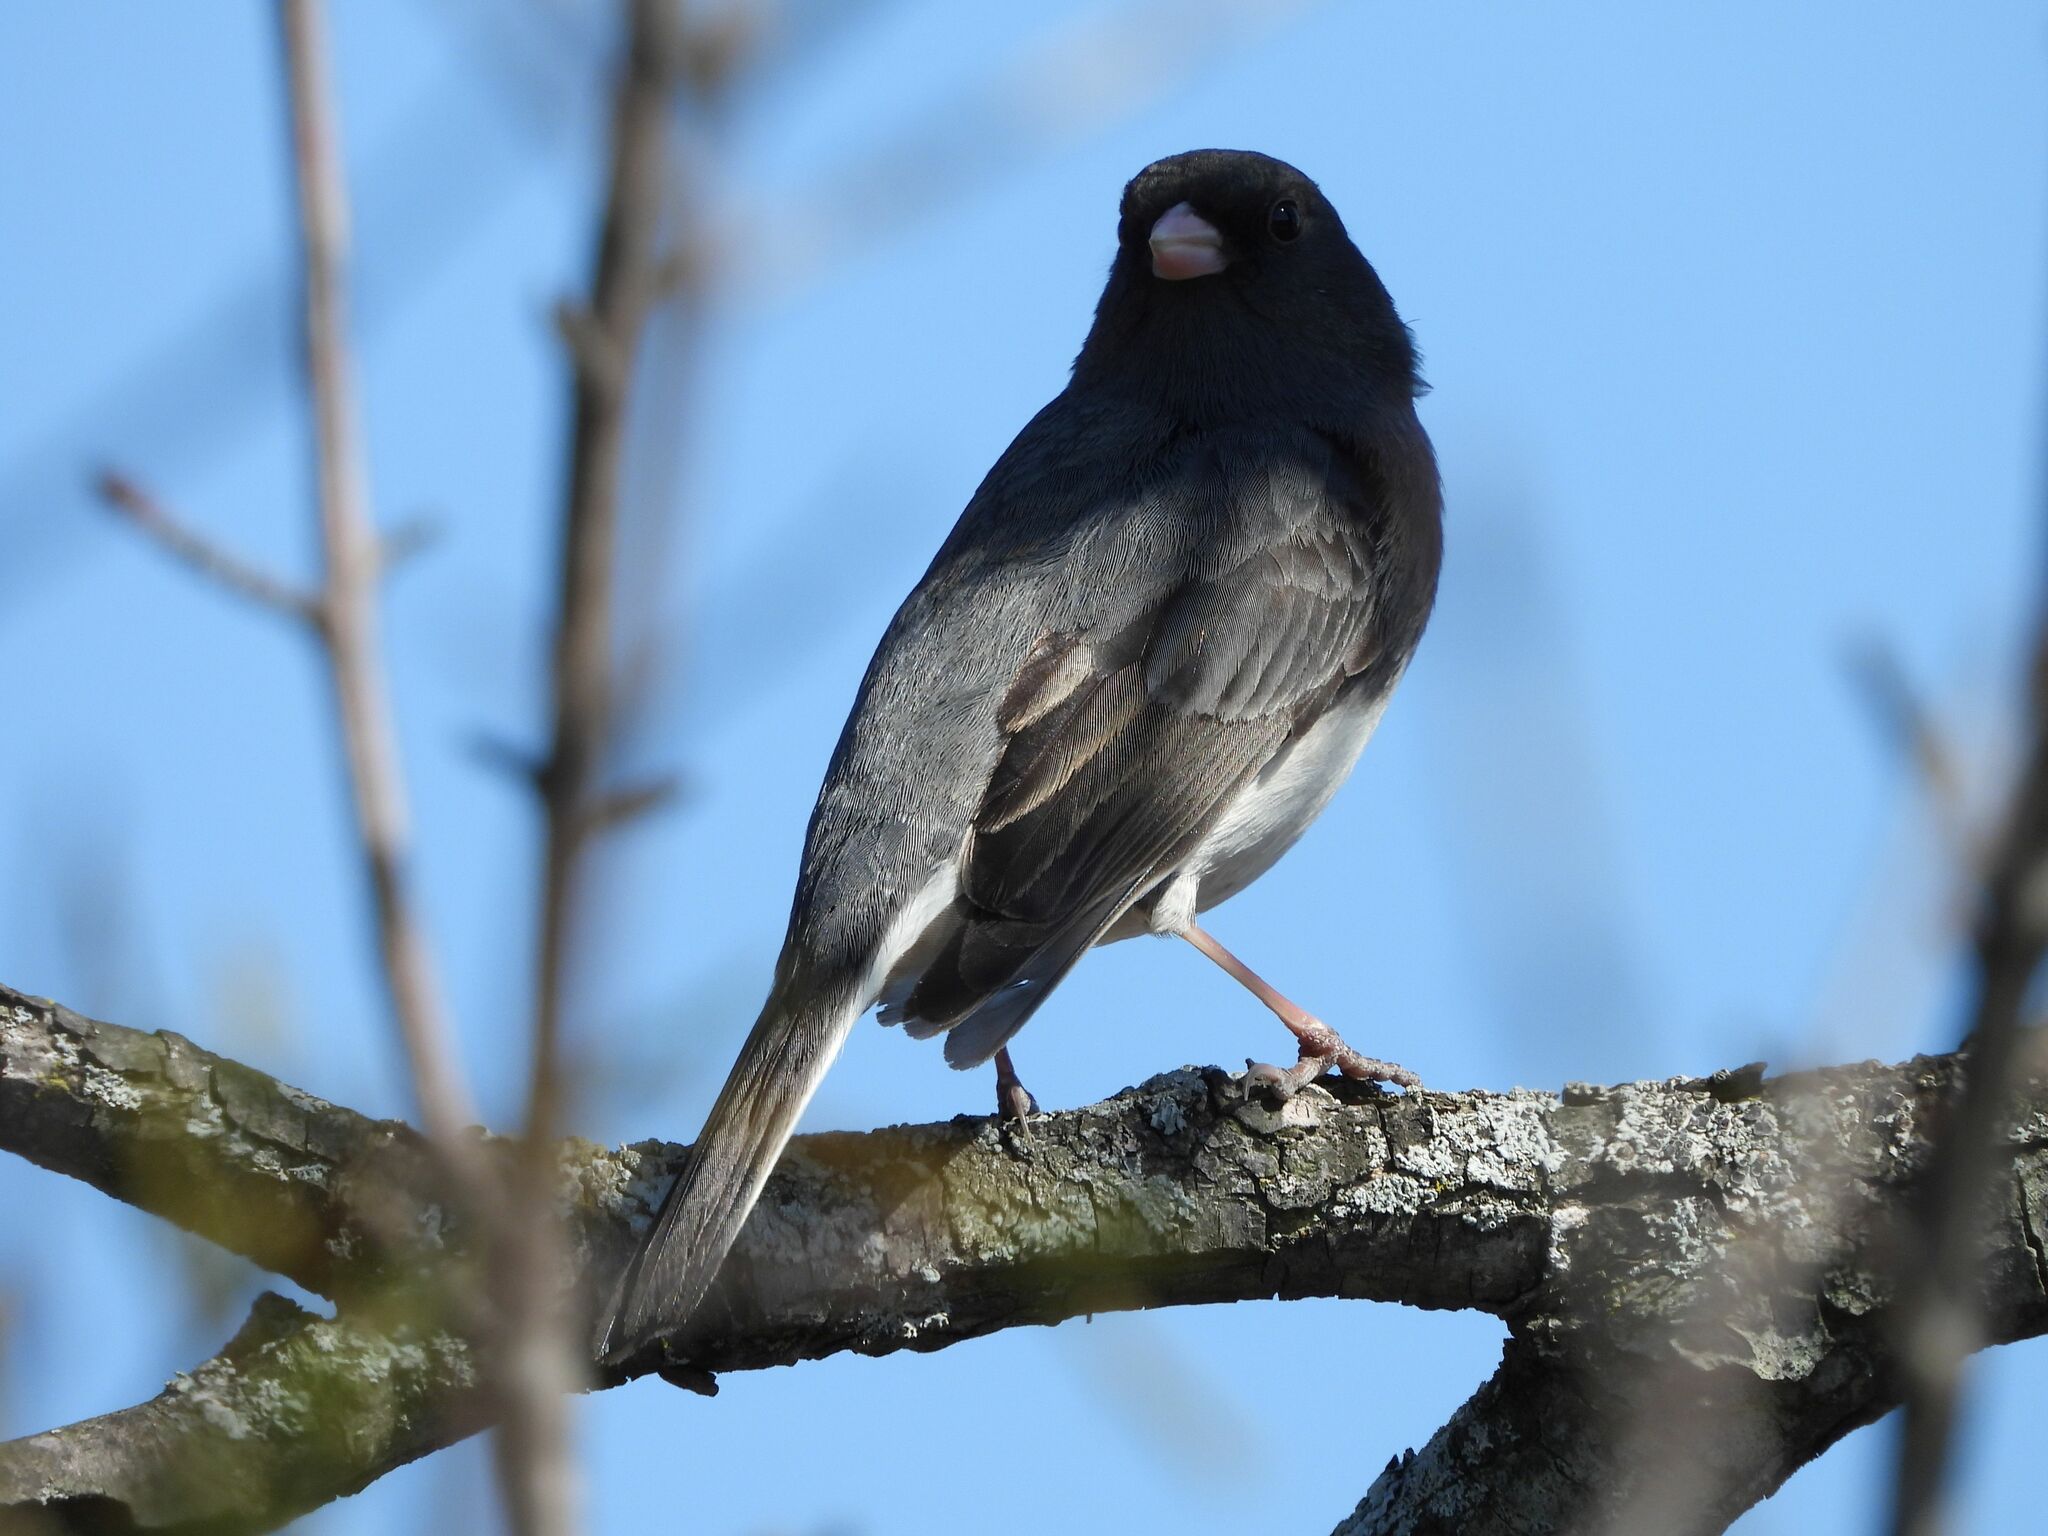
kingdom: Animalia
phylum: Chordata
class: Aves
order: Passeriformes
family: Passerellidae
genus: Junco
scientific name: Junco hyemalis
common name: Dark-eyed junco
